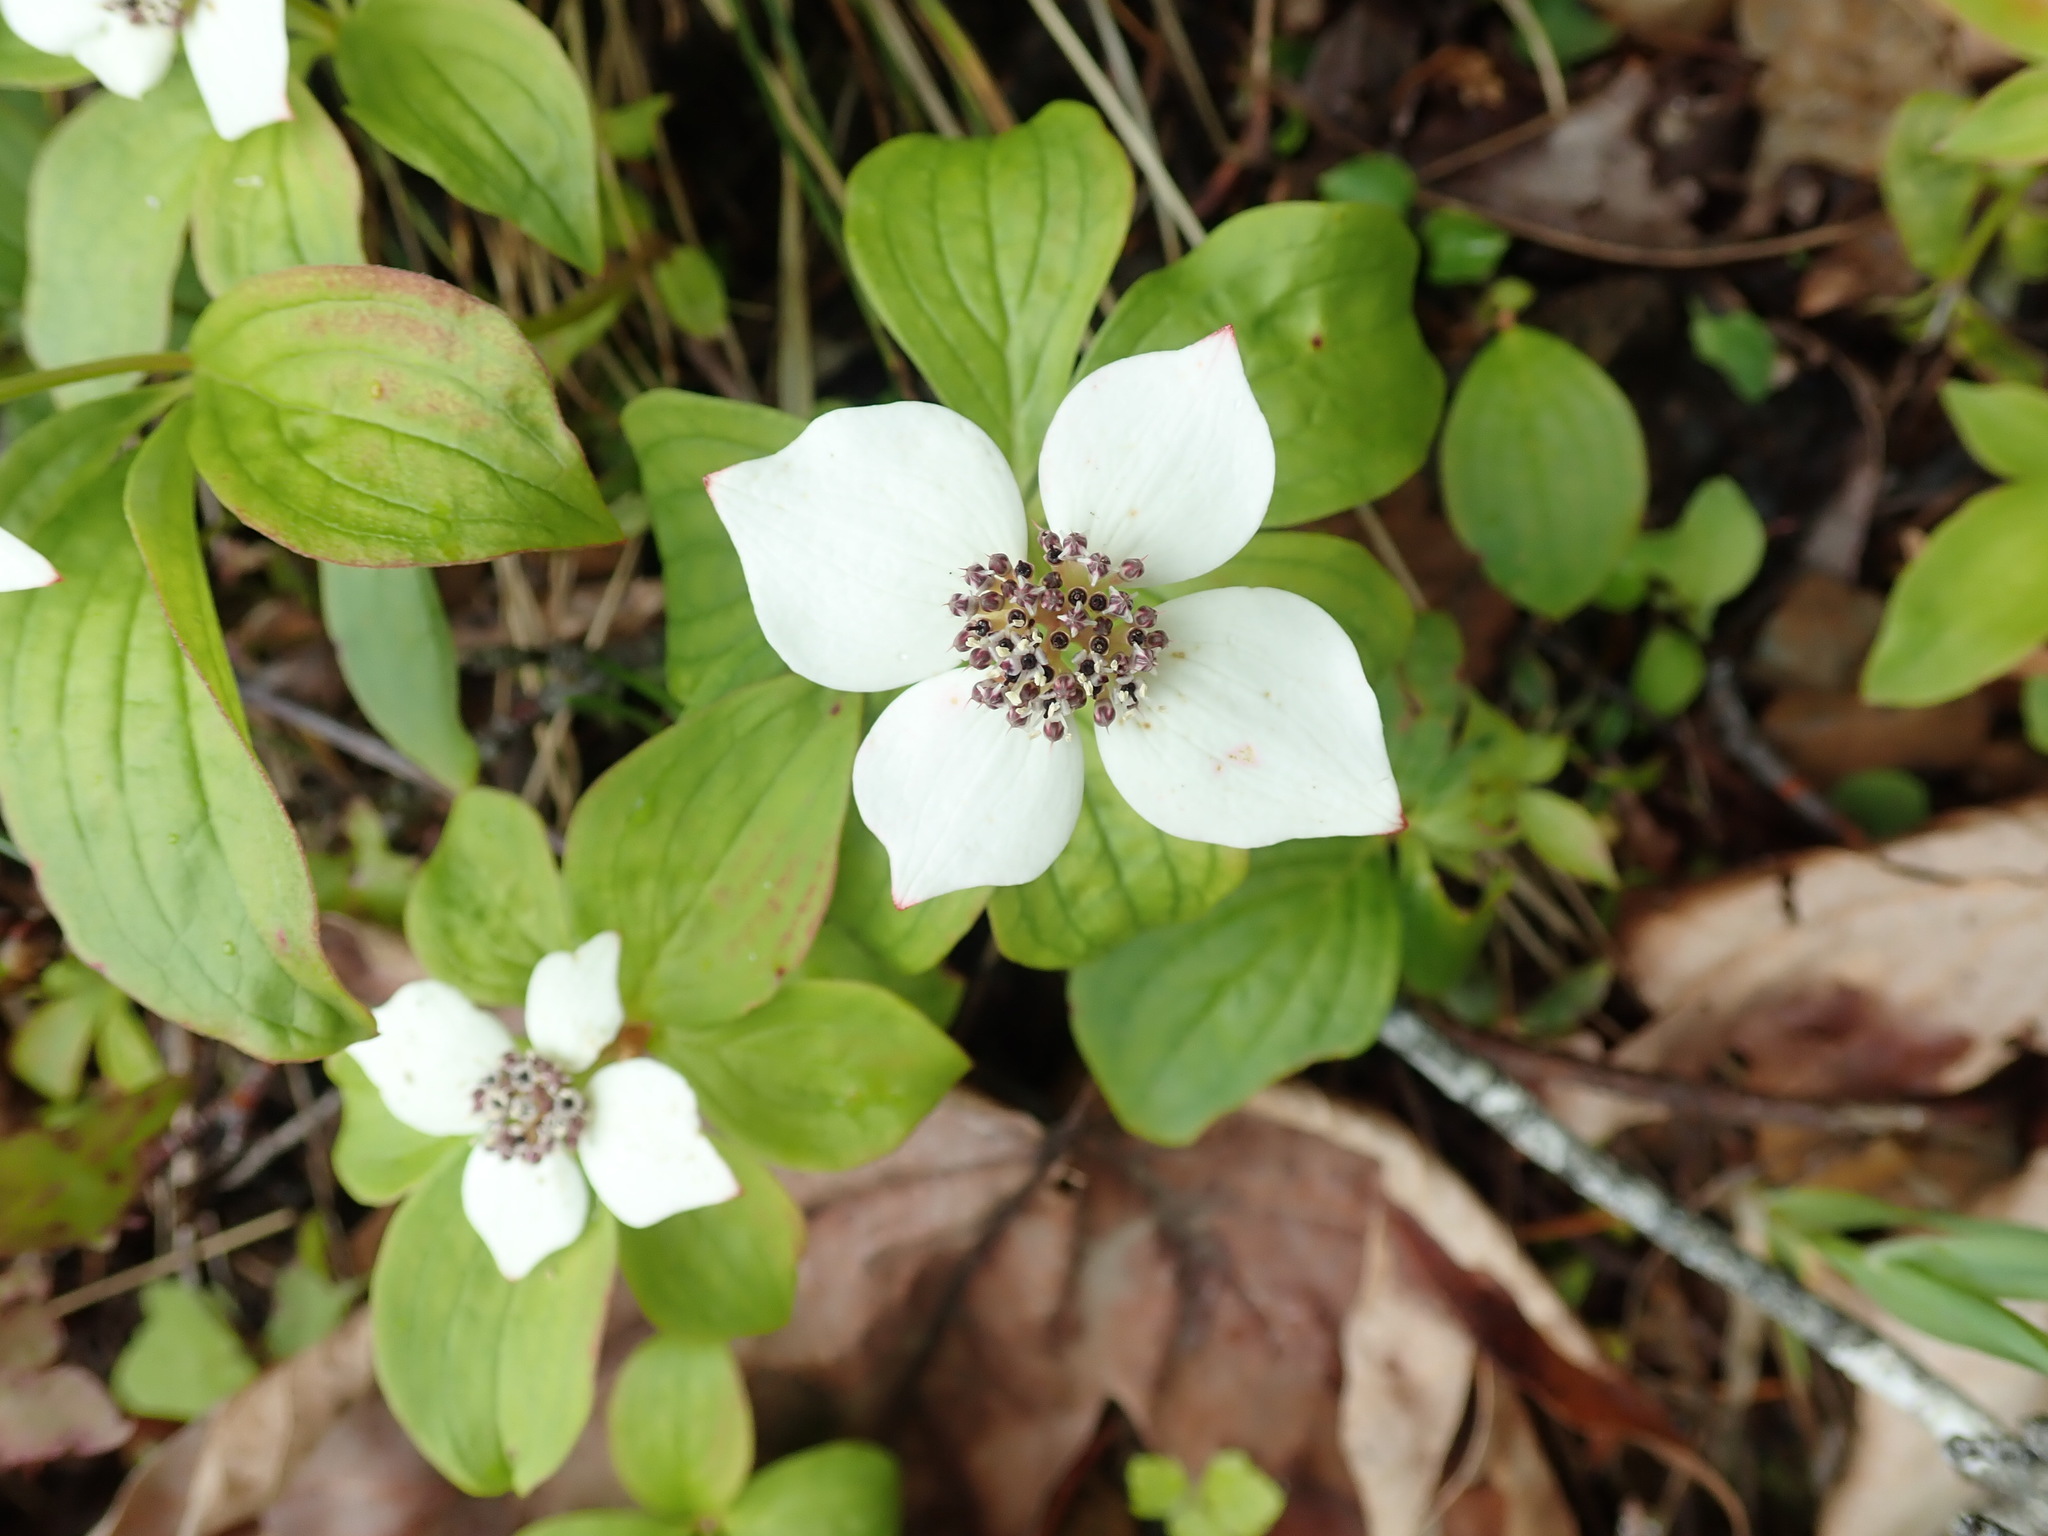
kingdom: Plantae
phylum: Tracheophyta
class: Magnoliopsida
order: Cornales
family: Cornaceae
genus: Cornus
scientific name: Cornus unalaschkensis
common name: Alaska bunchberry
